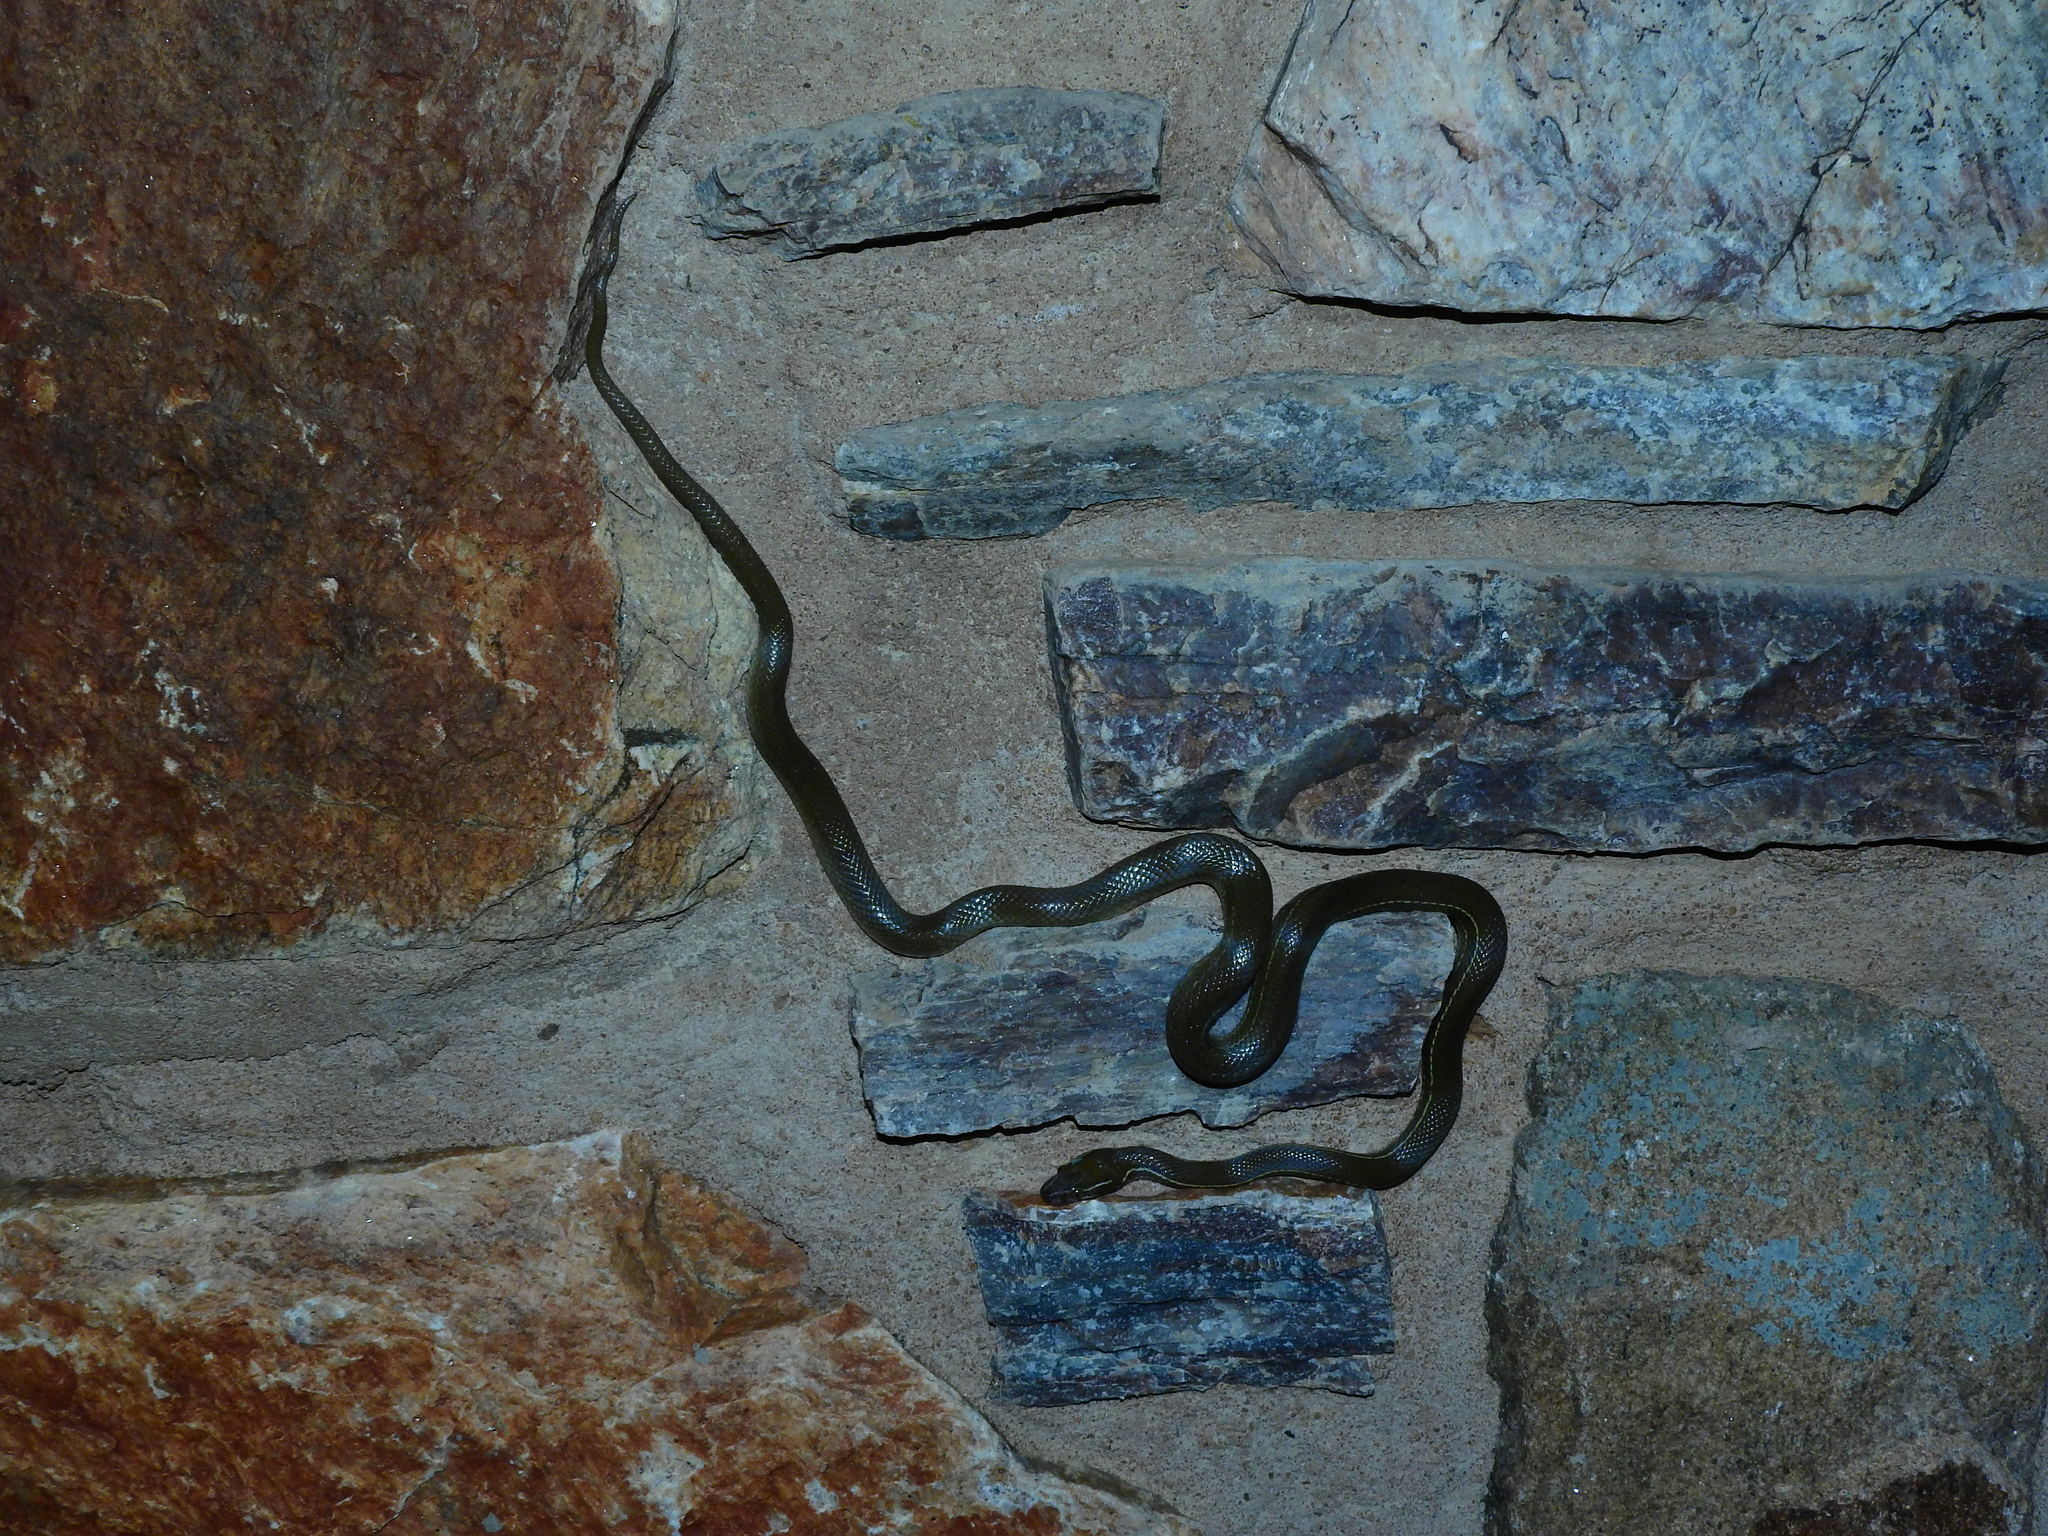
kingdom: Animalia
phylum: Chordata
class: Squamata
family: Lamprophiidae
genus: Boaedon
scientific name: Boaedon capensis
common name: Brown house snake
